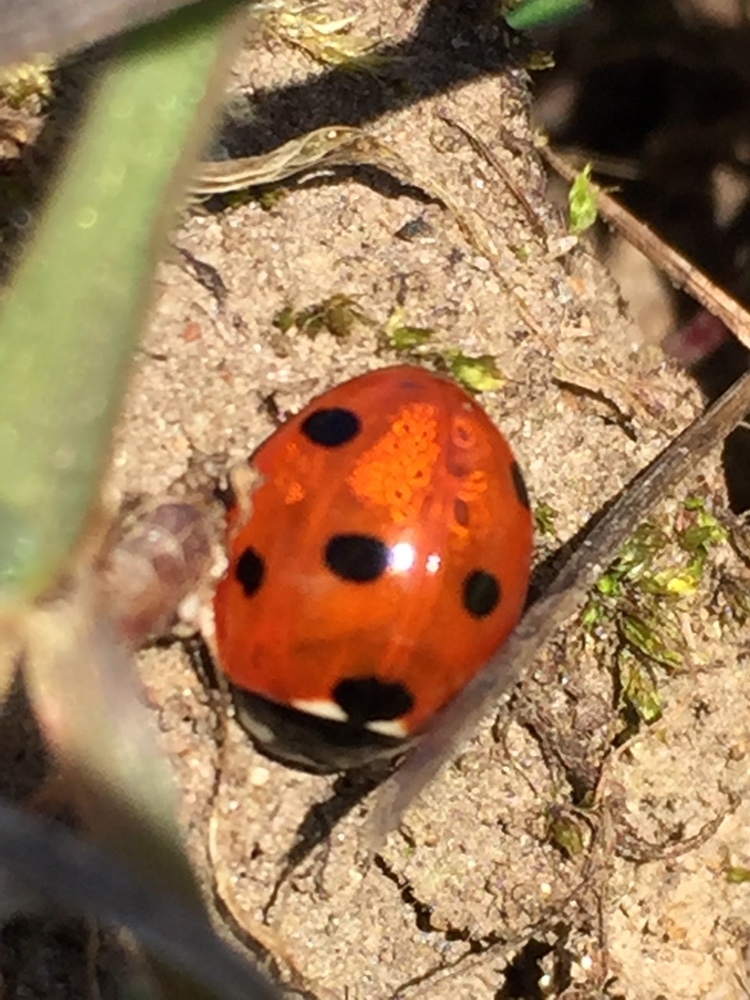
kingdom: Animalia
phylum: Arthropoda
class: Insecta
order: Coleoptera
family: Coccinellidae
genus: Coccinella
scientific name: Coccinella septempunctata
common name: Sevenspotted lady beetle
